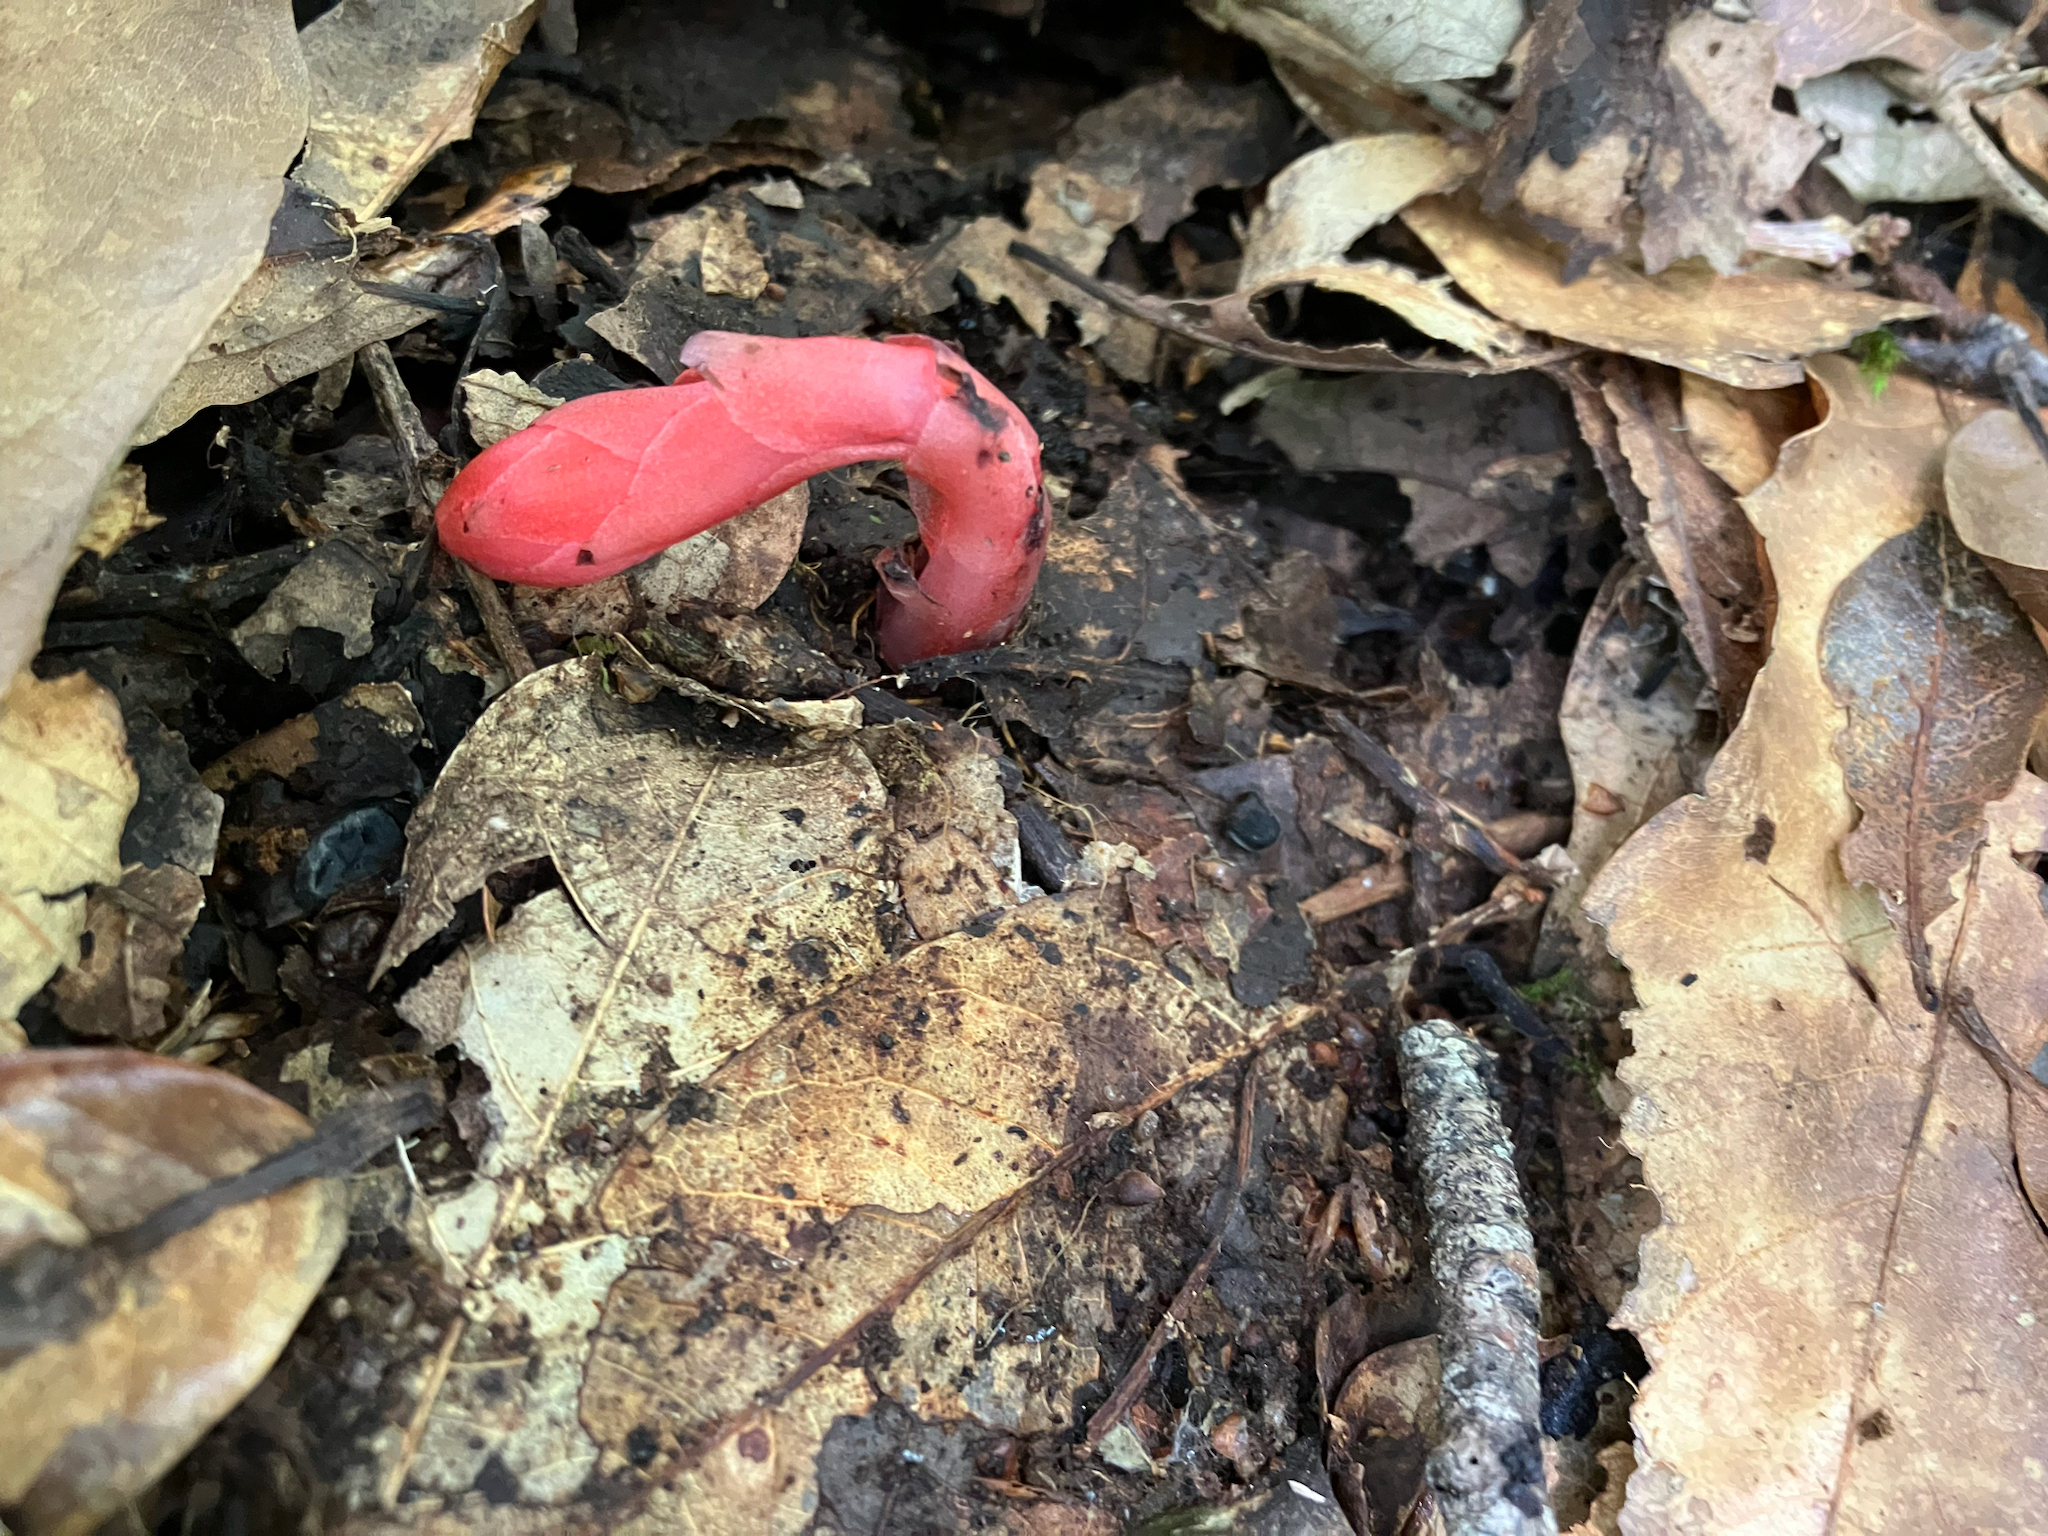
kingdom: Plantae
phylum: Tracheophyta
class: Magnoliopsida
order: Ericales
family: Ericaceae
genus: Monotropa
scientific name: Monotropa coccinea
